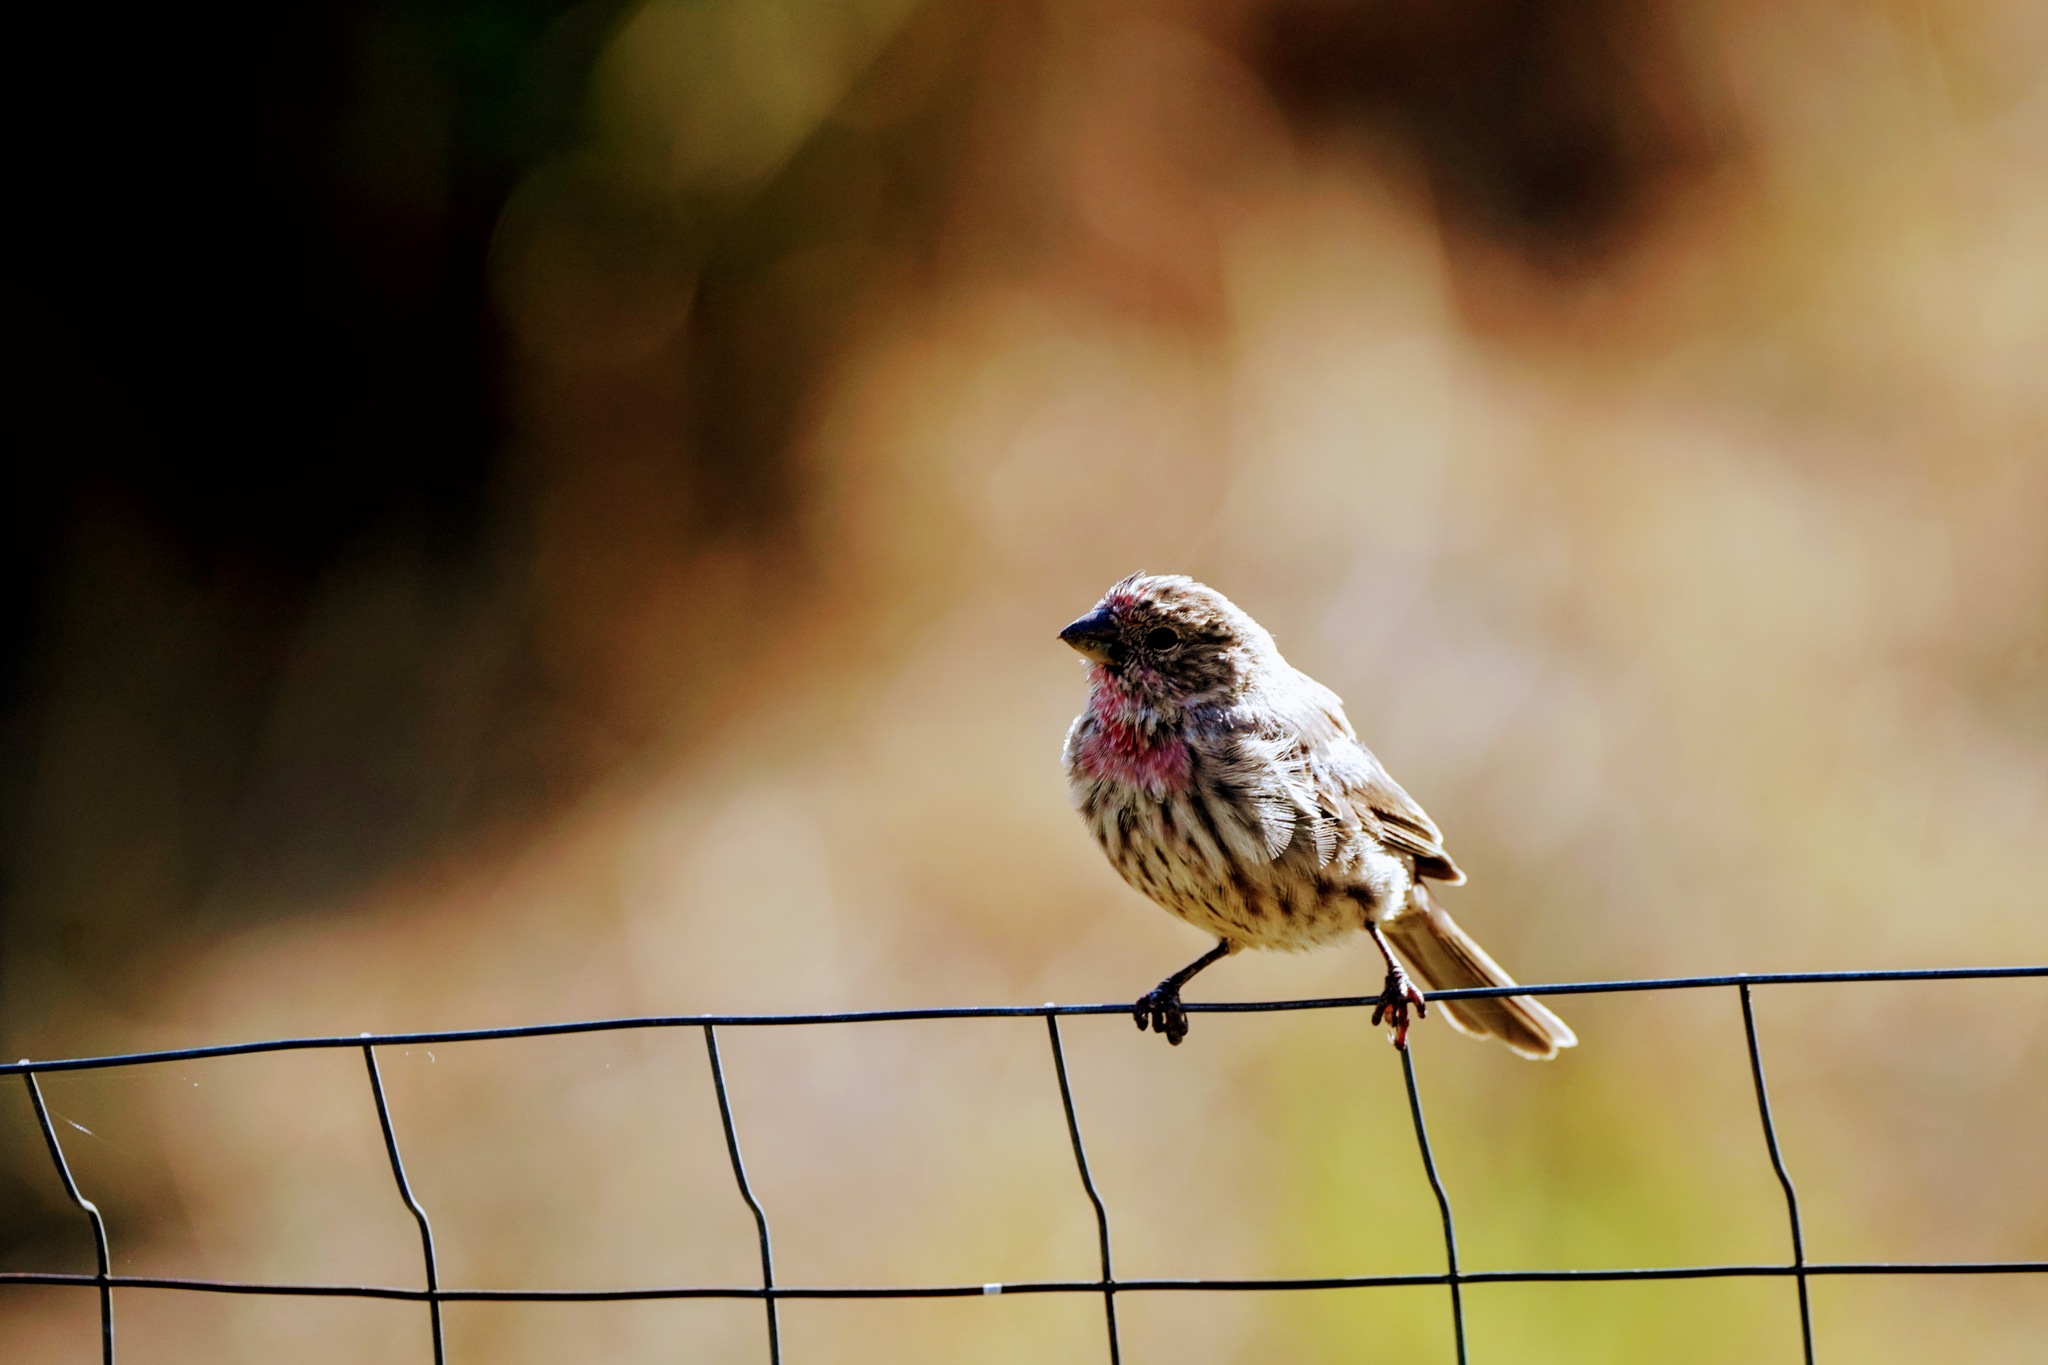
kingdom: Animalia
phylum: Chordata
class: Aves
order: Passeriformes
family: Fringillidae
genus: Haemorhous
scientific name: Haemorhous mexicanus
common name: House finch
